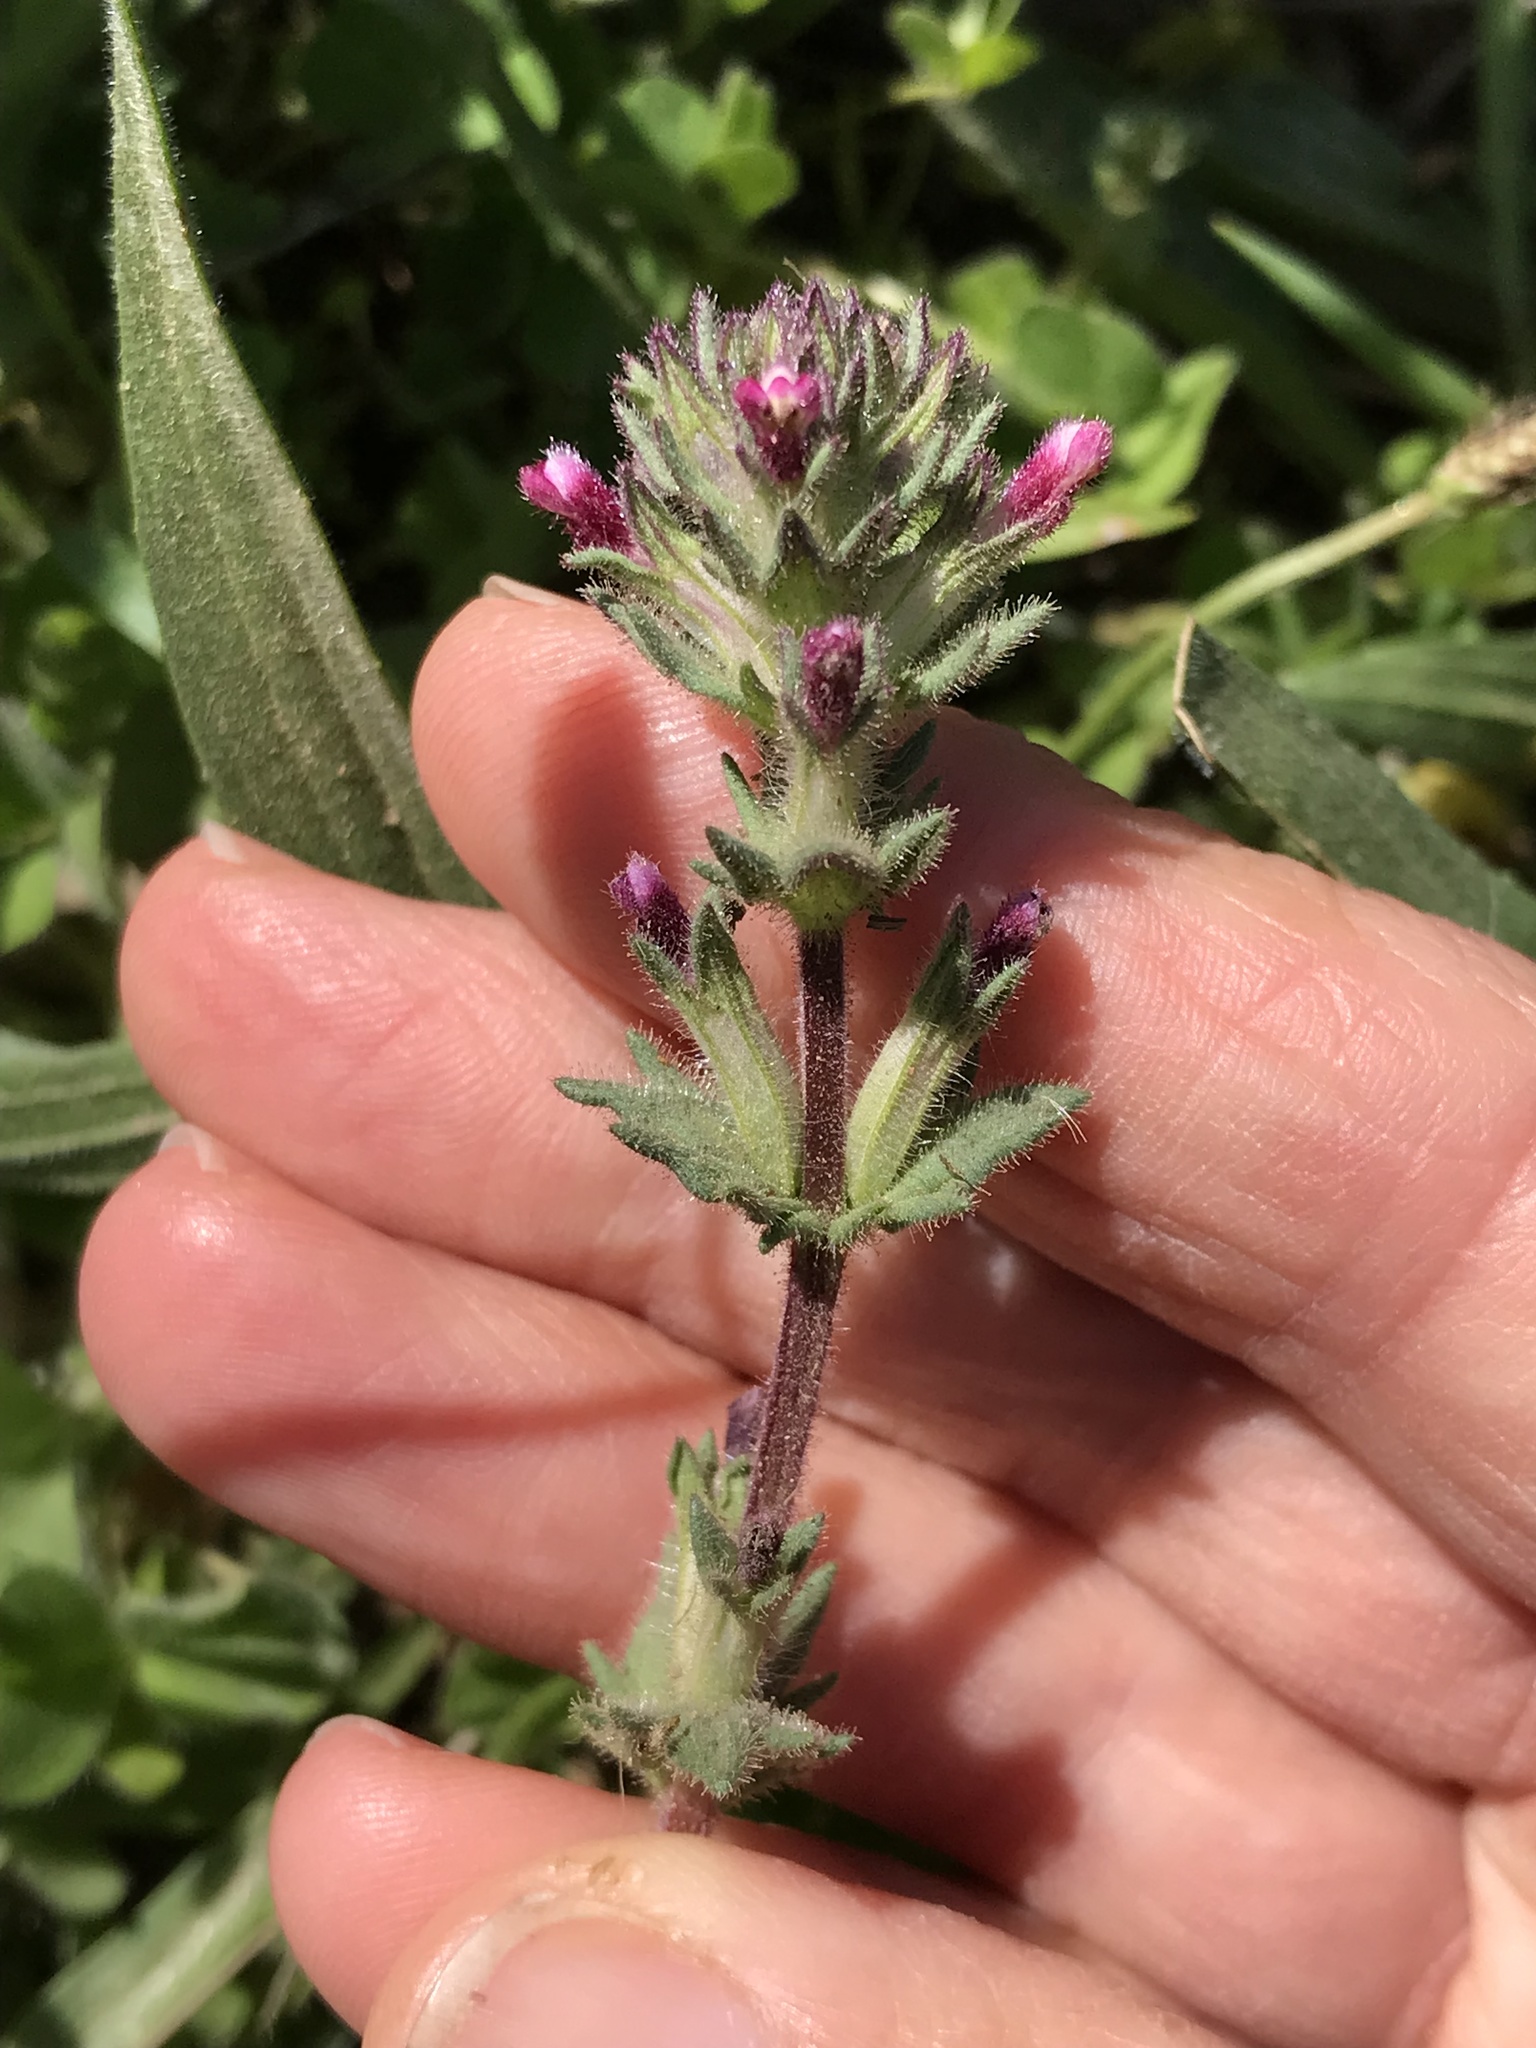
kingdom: Plantae
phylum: Tracheophyta
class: Magnoliopsida
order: Lamiales
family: Orobanchaceae
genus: Parentucellia
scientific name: Parentucellia latifolia
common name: Broadleaf glandweed
